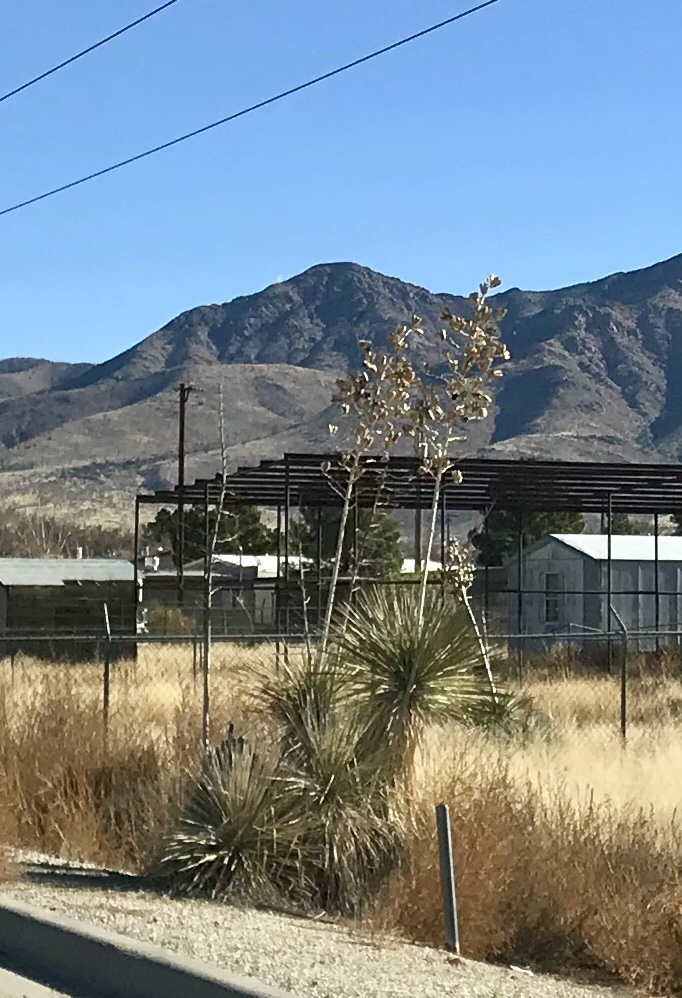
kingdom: Plantae
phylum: Tracheophyta
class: Liliopsida
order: Asparagales
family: Asparagaceae
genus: Yucca
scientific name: Yucca elata
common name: Palmella
